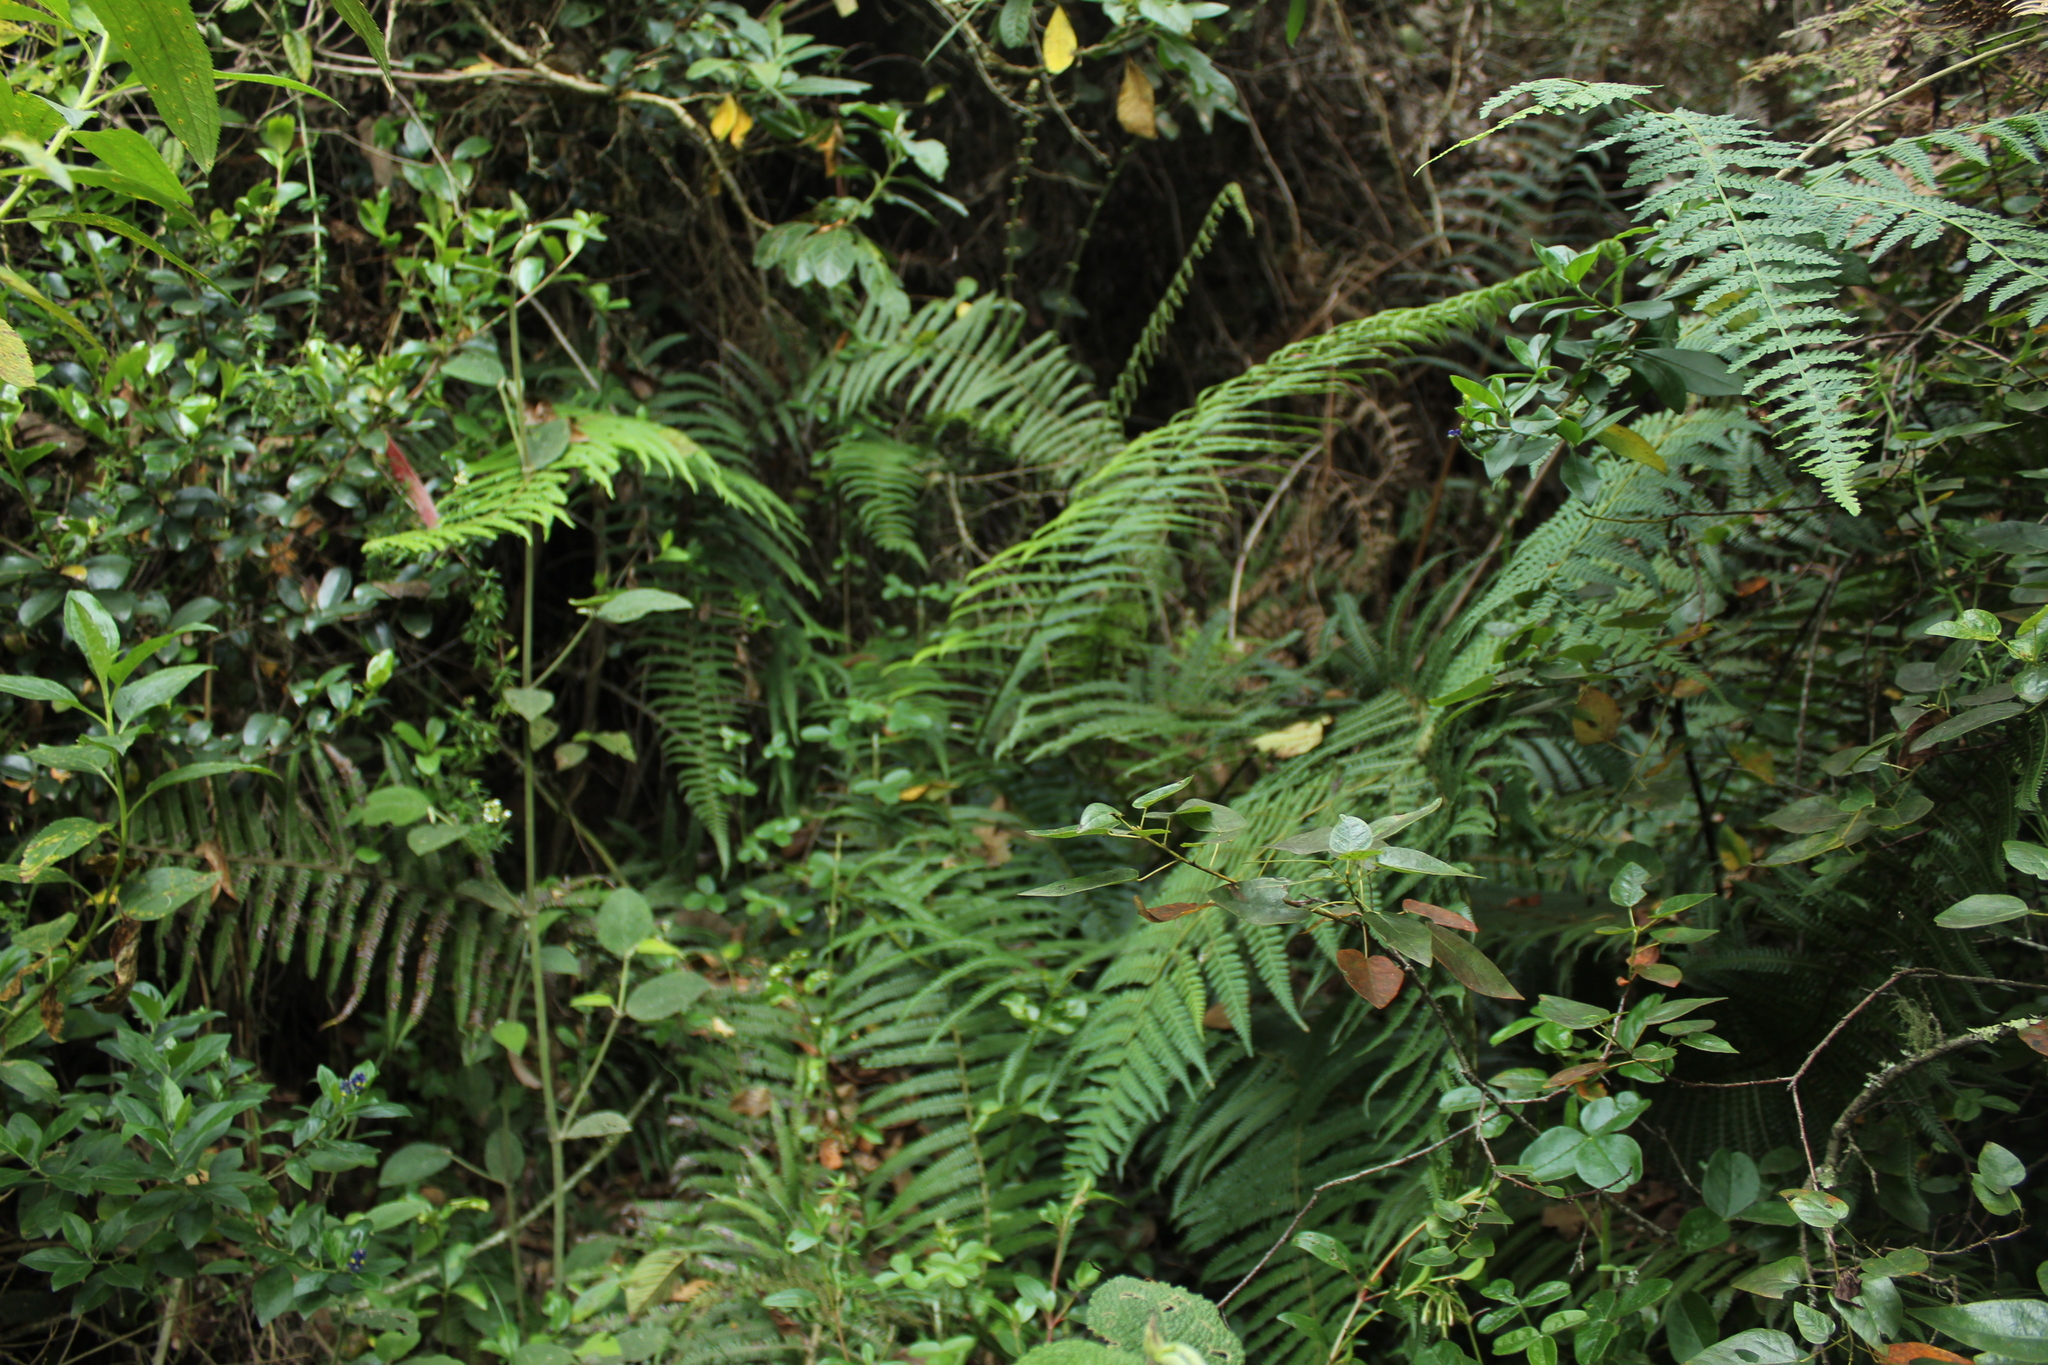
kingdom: Plantae
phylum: Tracheophyta
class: Polypodiopsida
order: Polypodiales
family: Dennstaedtiaceae
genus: Hypolepis
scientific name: Hypolepis viscosa
